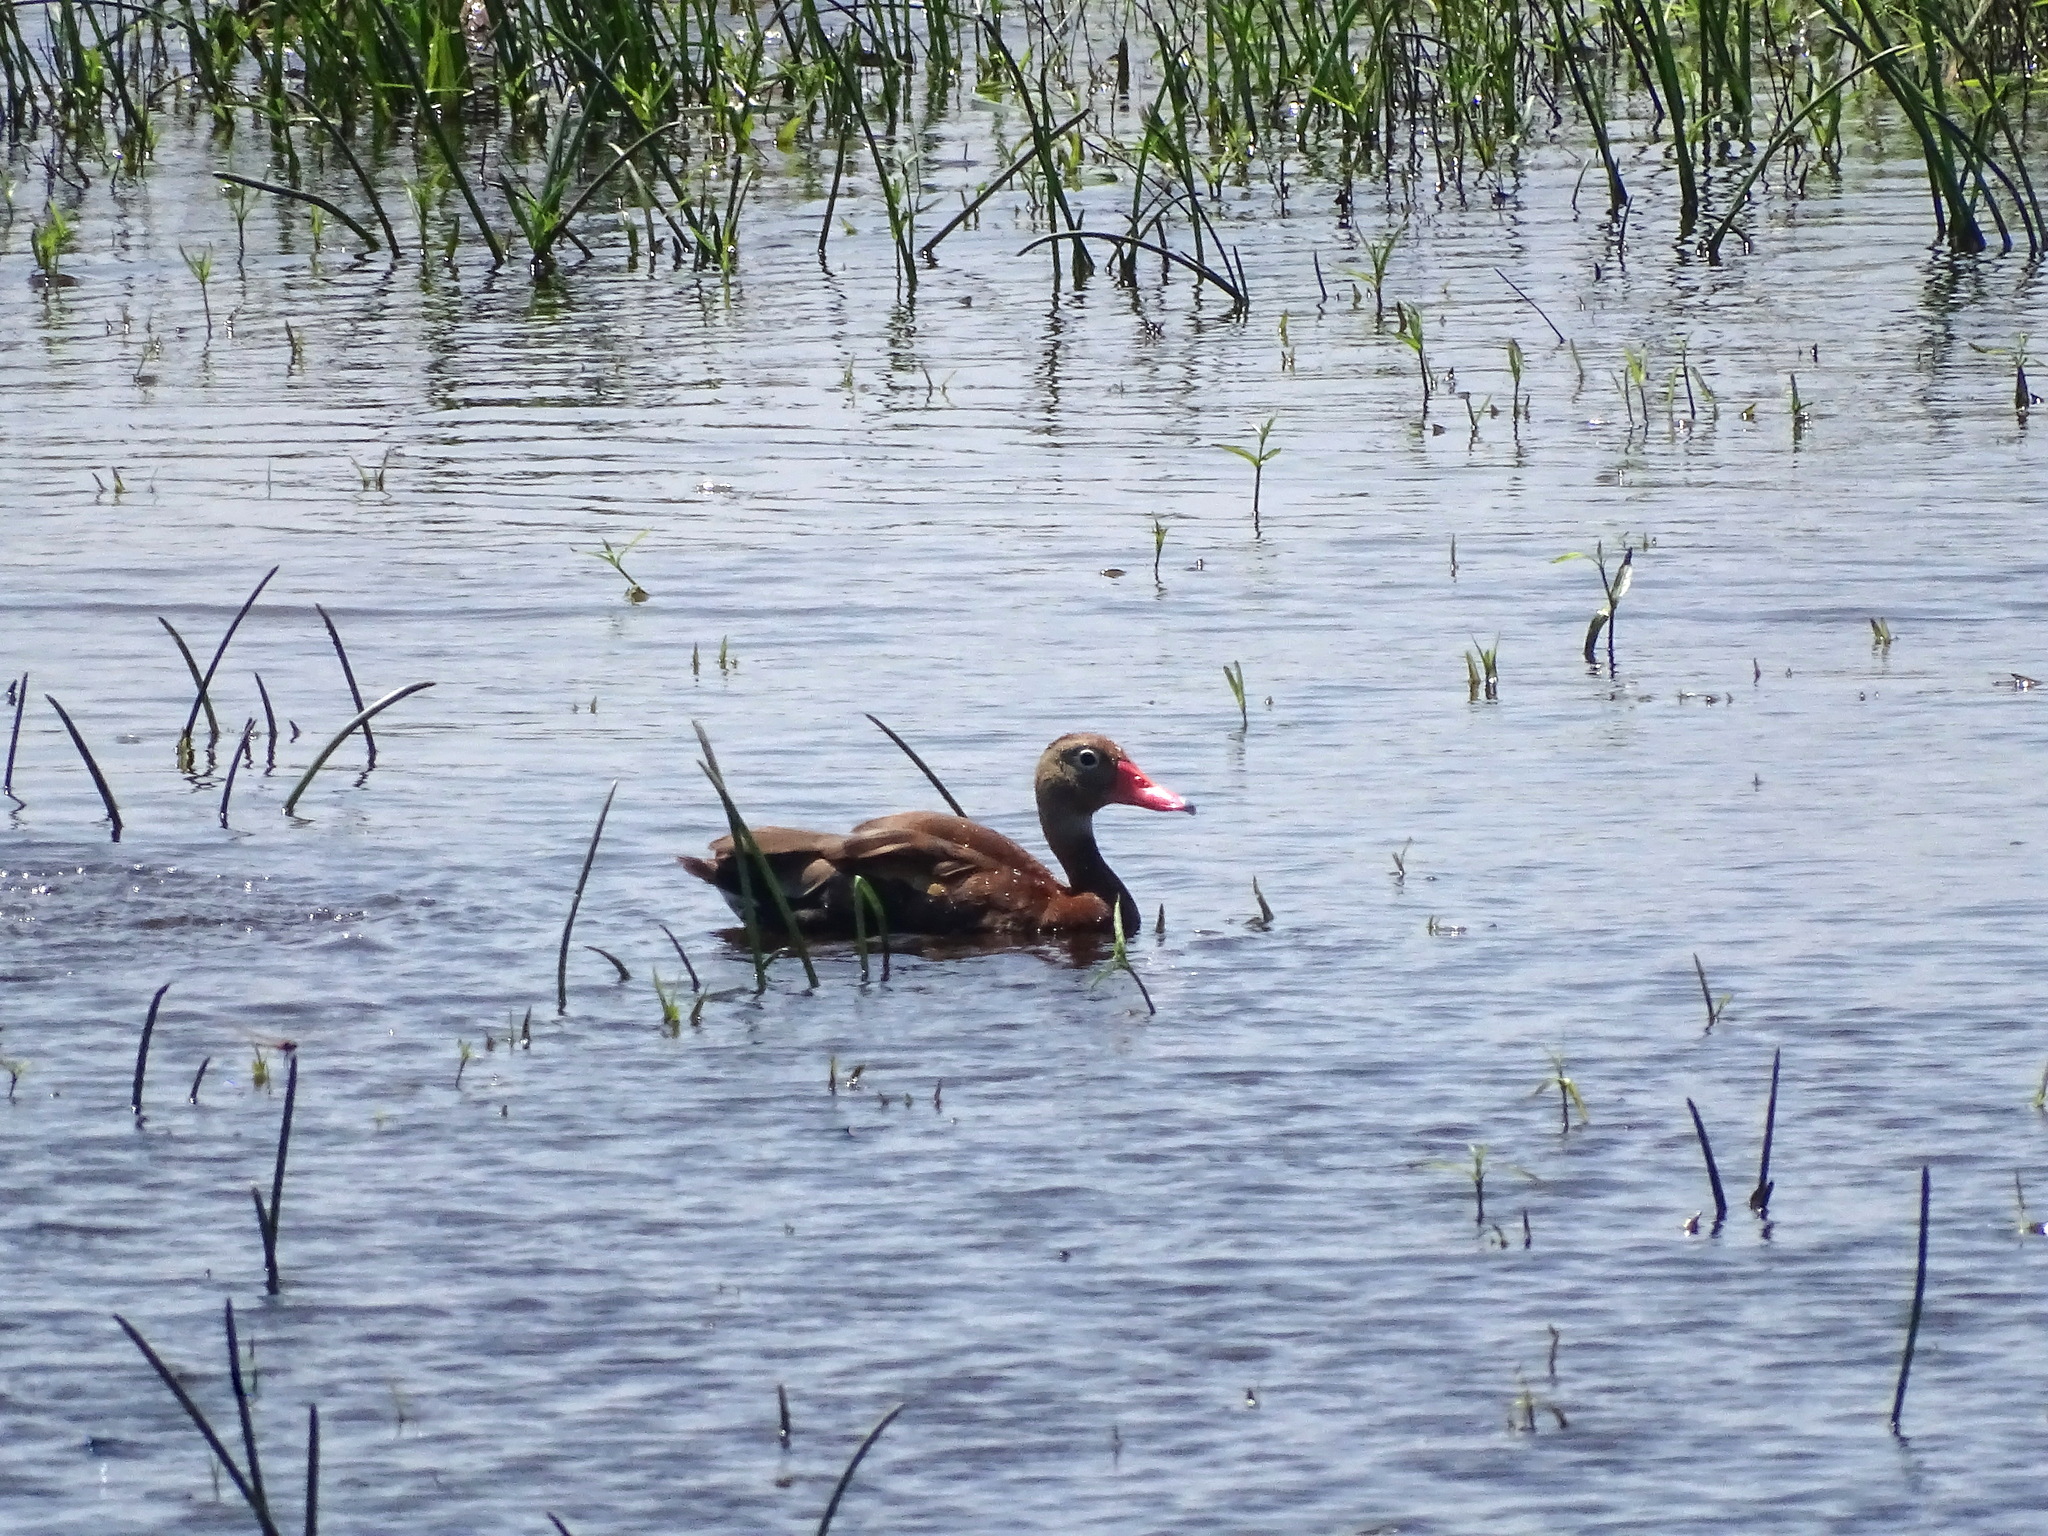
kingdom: Animalia
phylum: Chordata
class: Aves
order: Anseriformes
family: Anatidae
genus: Dendrocygna
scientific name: Dendrocygna autumnalis
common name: Black-bellied whistling duck
